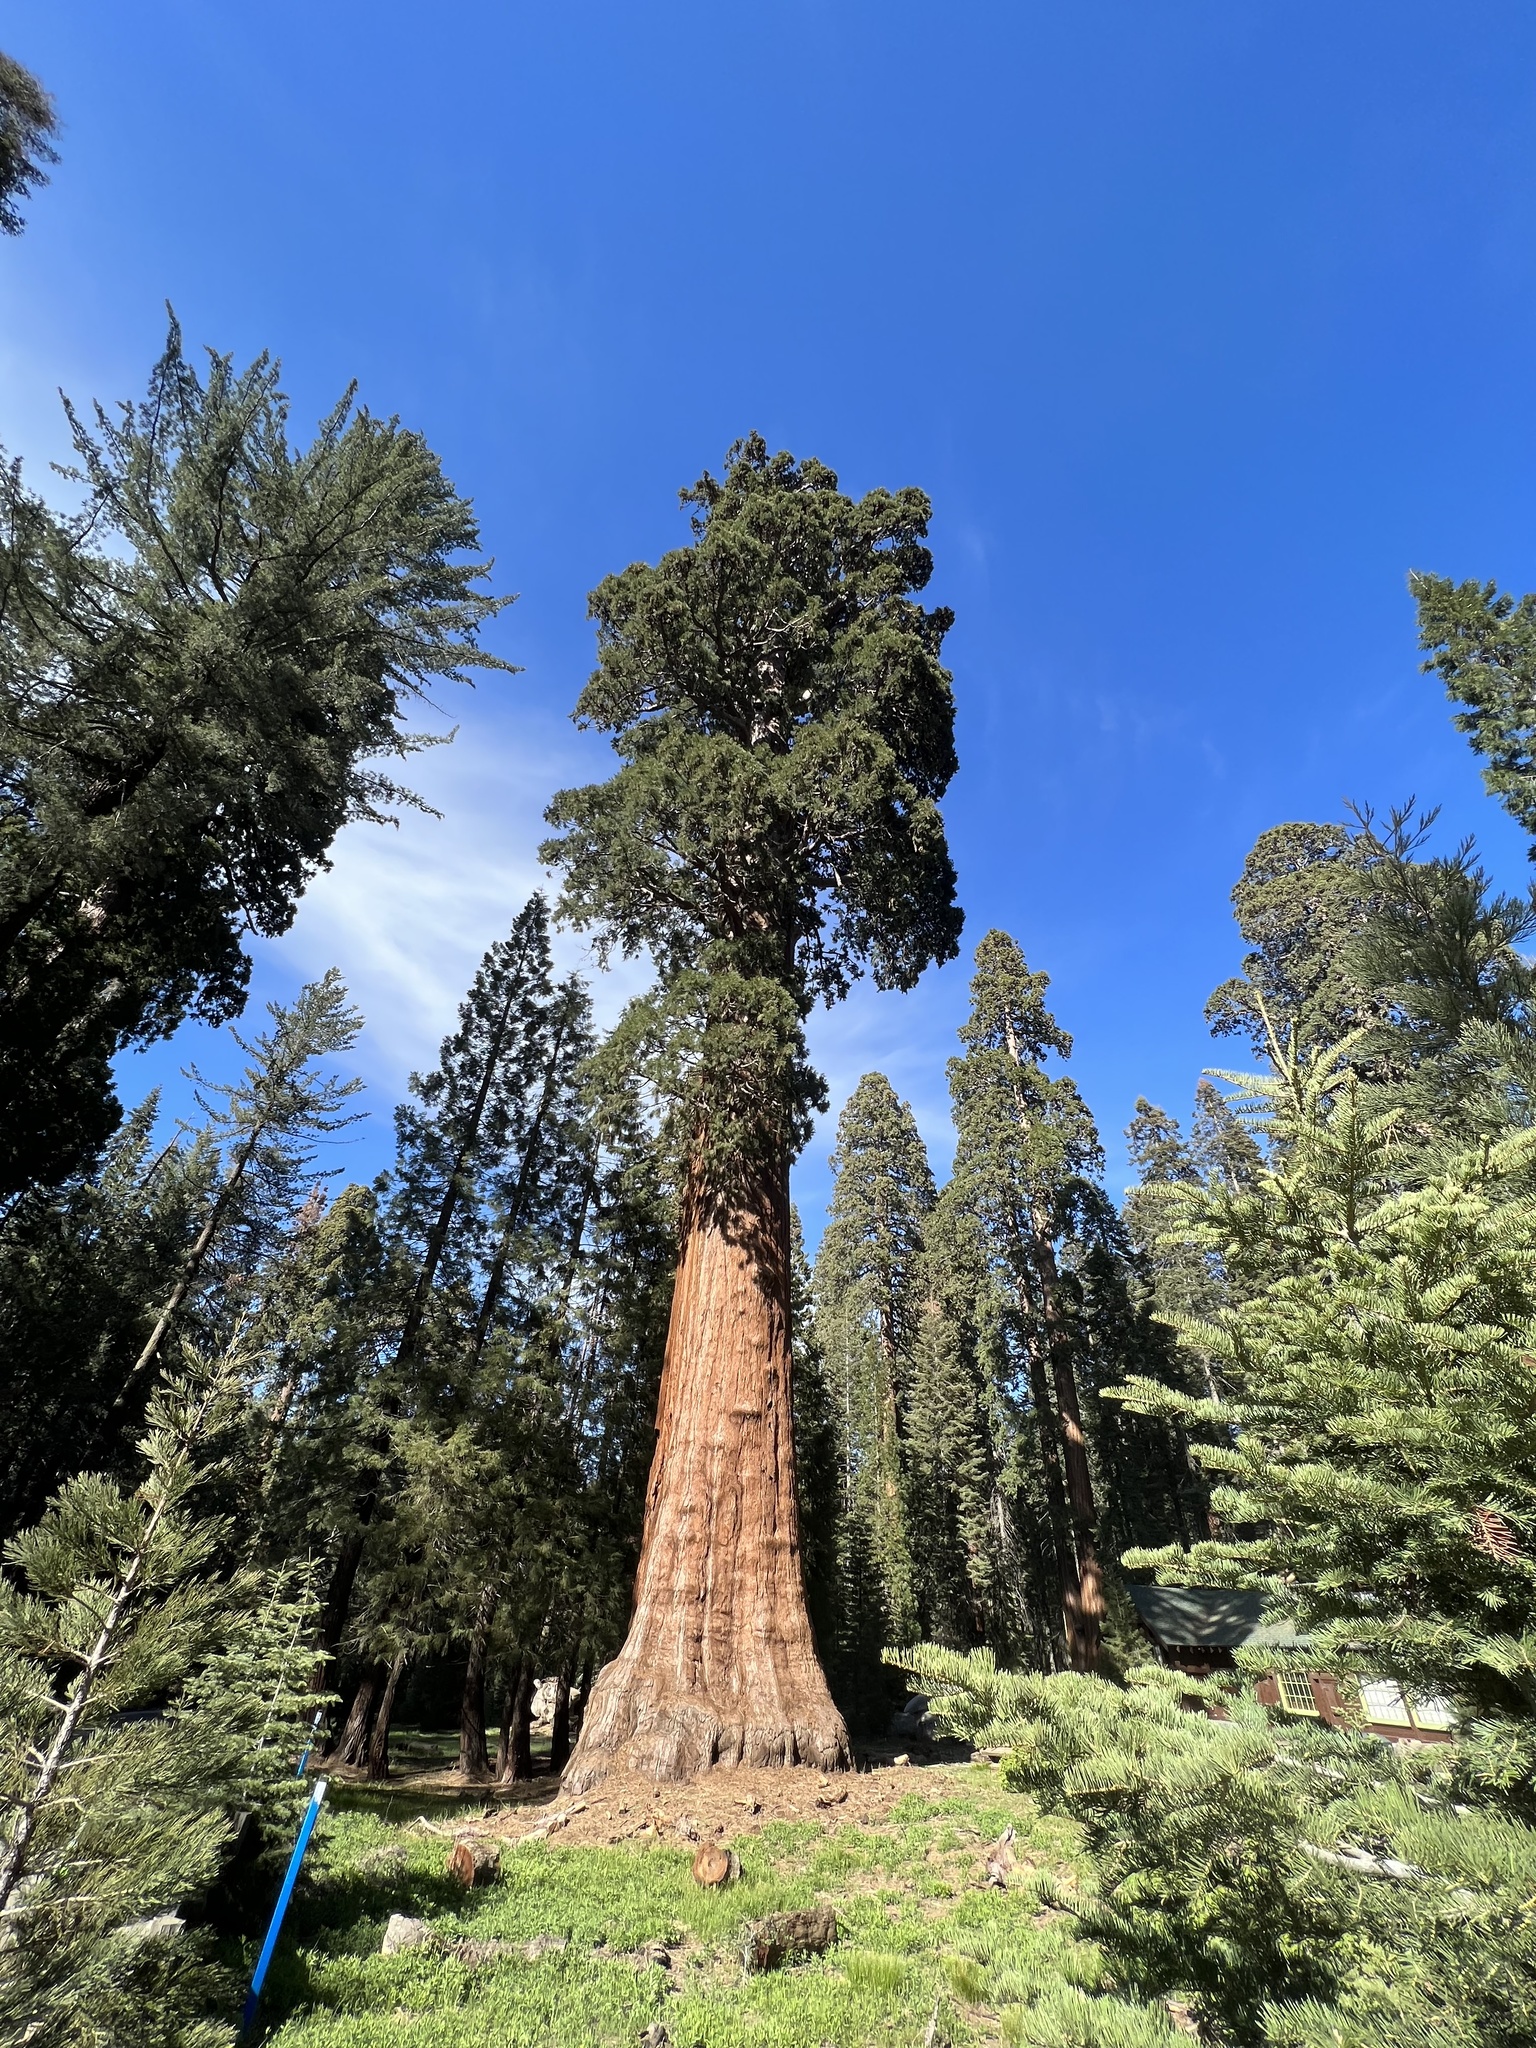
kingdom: Plantae
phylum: Tracheophyta
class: Pinopsida
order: Pinales
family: Cupressaceae
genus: Sequoiadendron
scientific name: Sequoiadendron giganteum
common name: Wellingtonia
